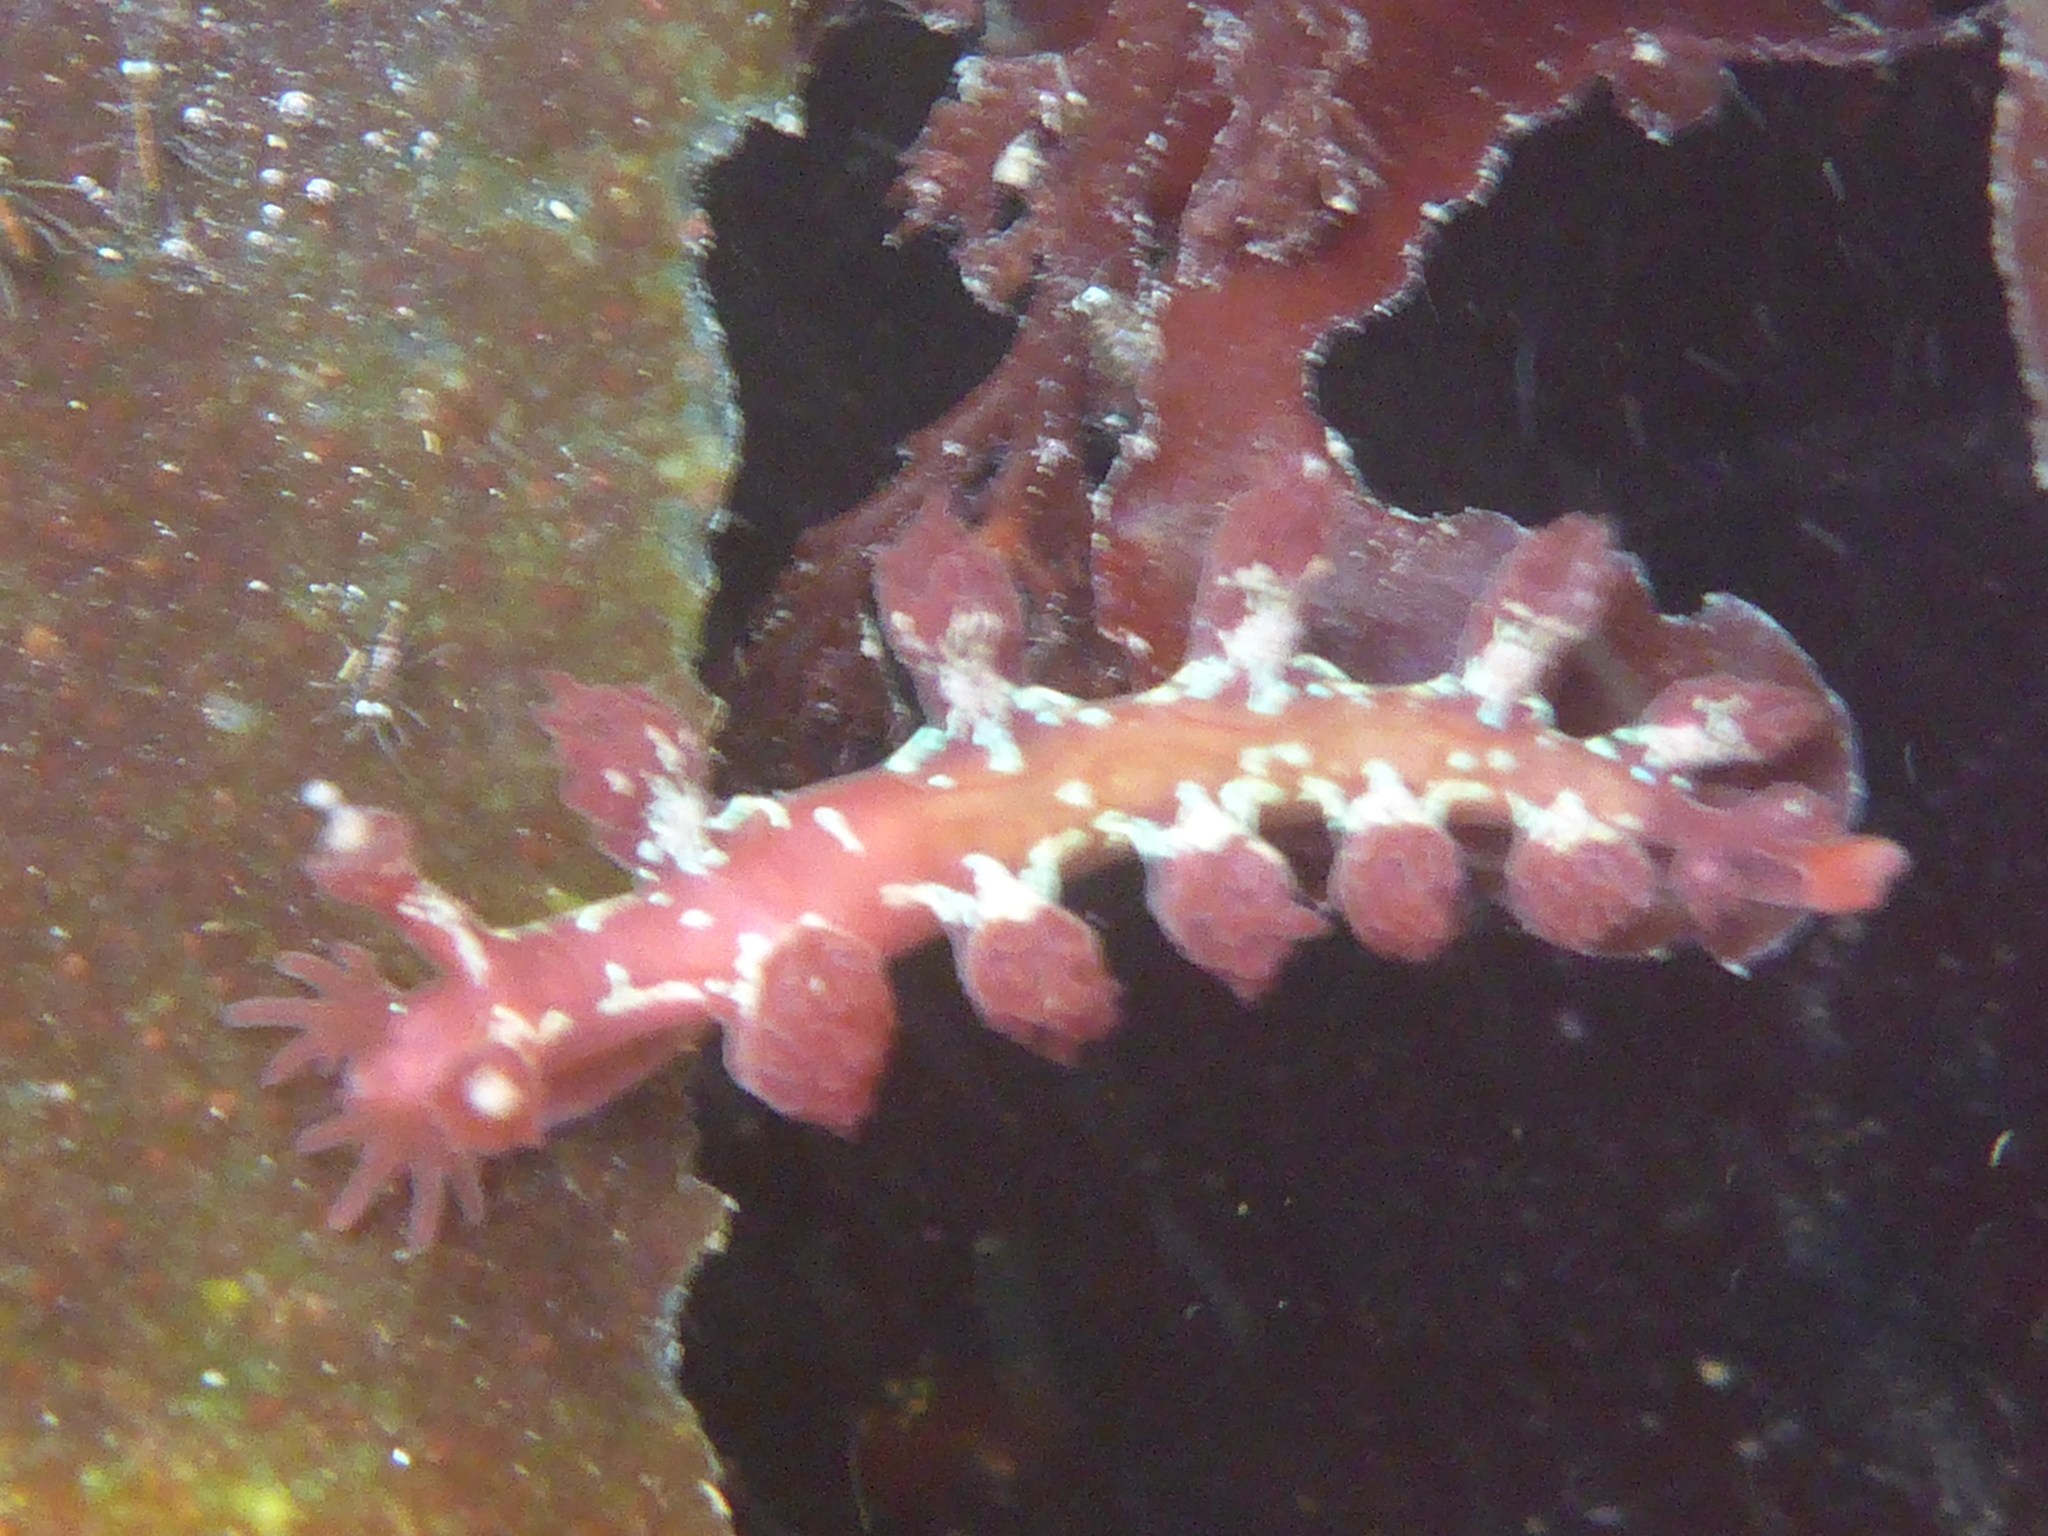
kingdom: Animalia
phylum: Mollusca
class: Gastropoda
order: Nudibranchia
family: Hancockiidae
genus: Hancockia
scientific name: Hancockia californica
